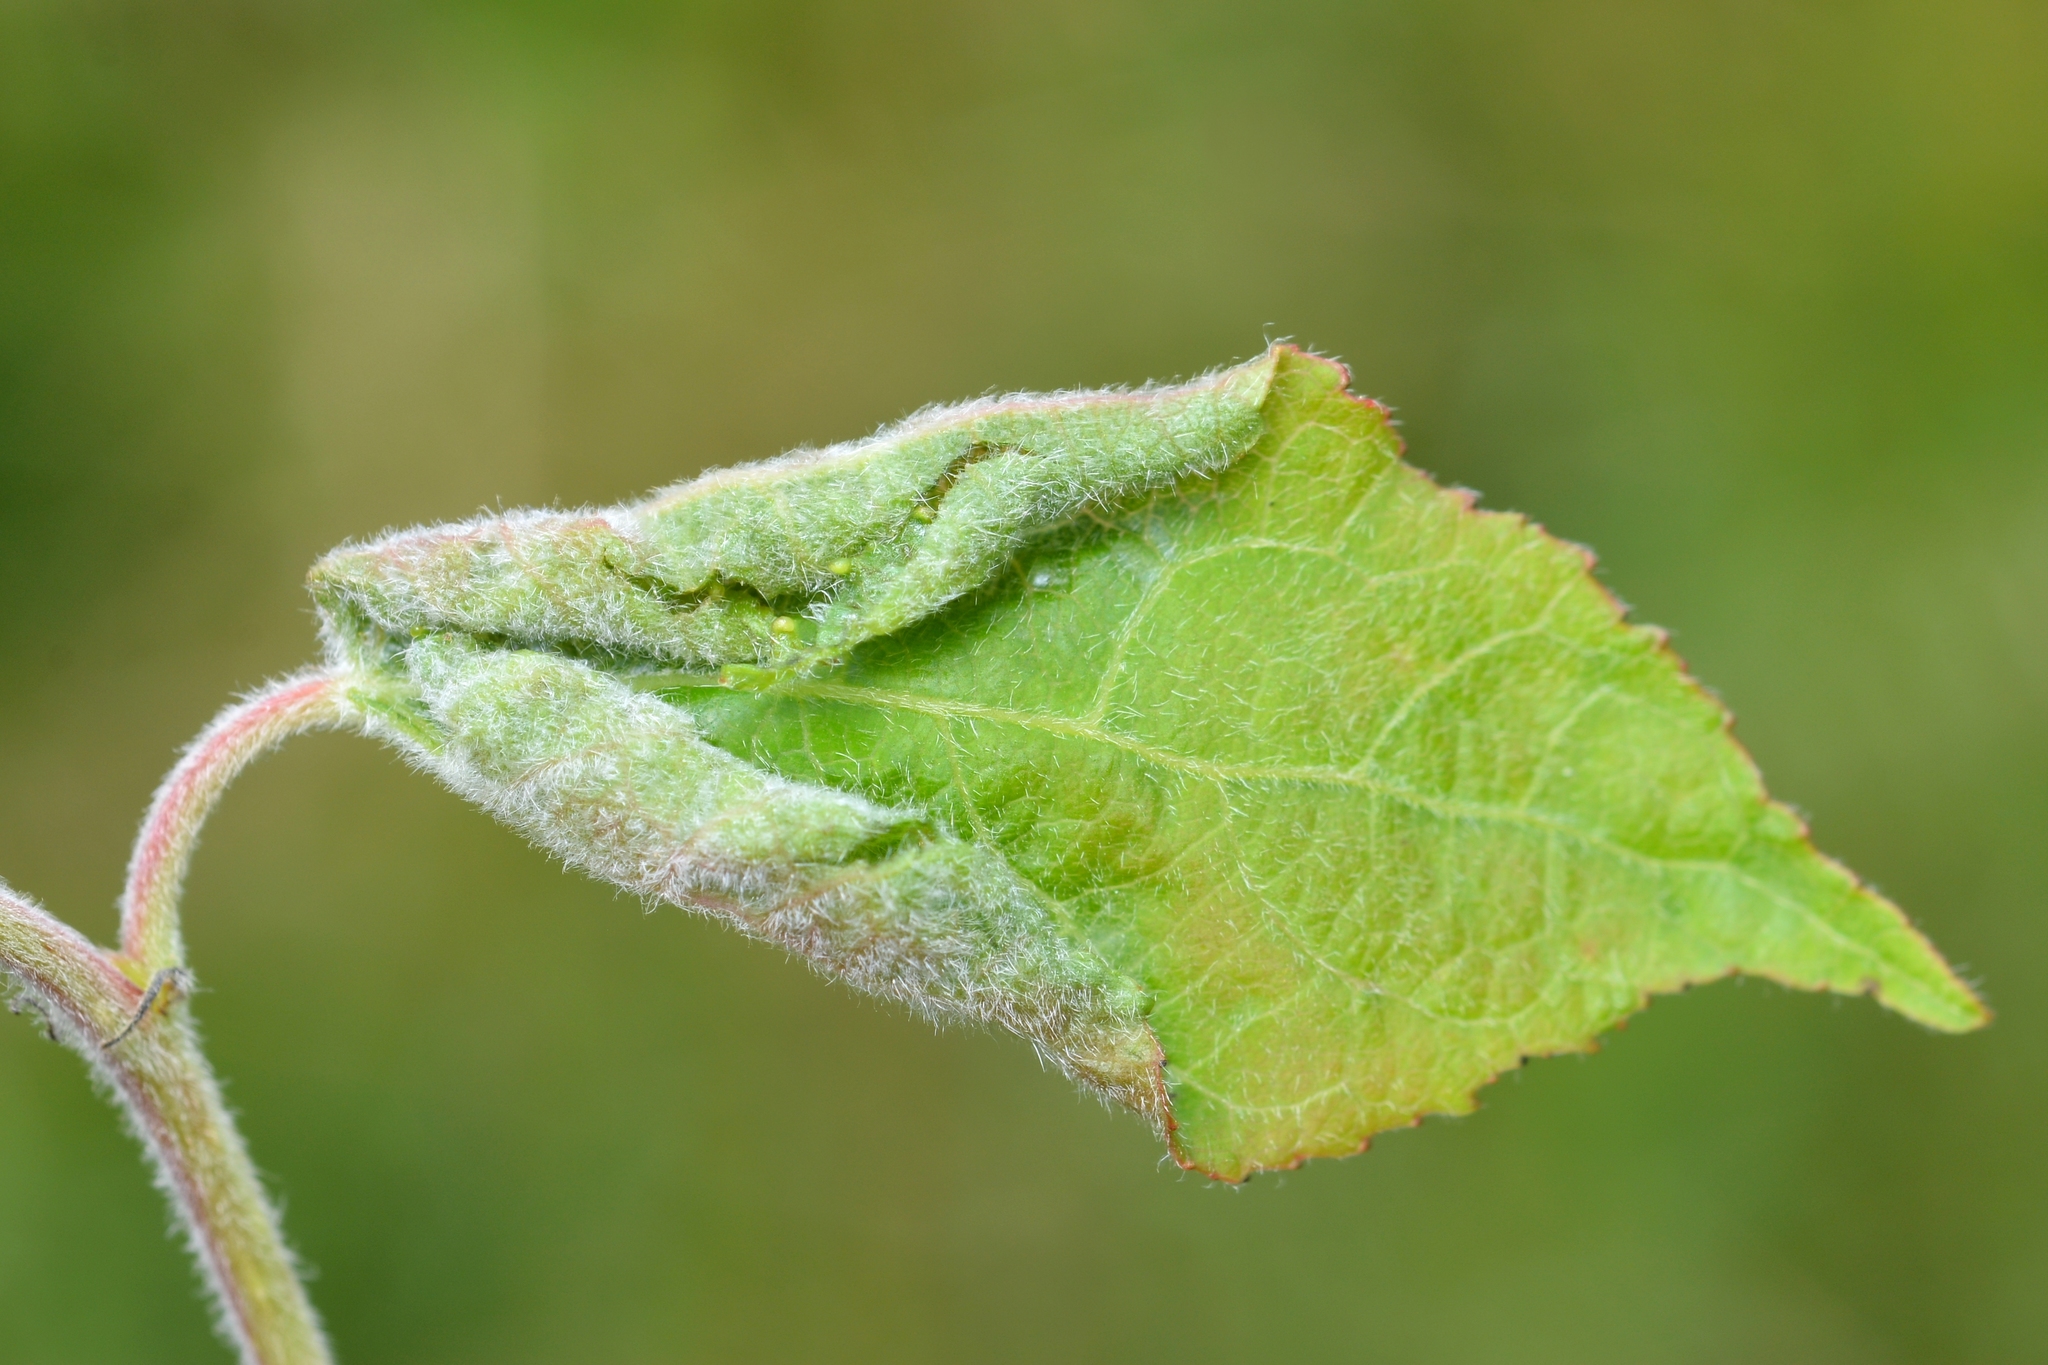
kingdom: Animalia
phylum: Arthropoda
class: Insecta
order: Diptera
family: Cecidomyiidae
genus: Dasineura
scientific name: Dasineura populeti
